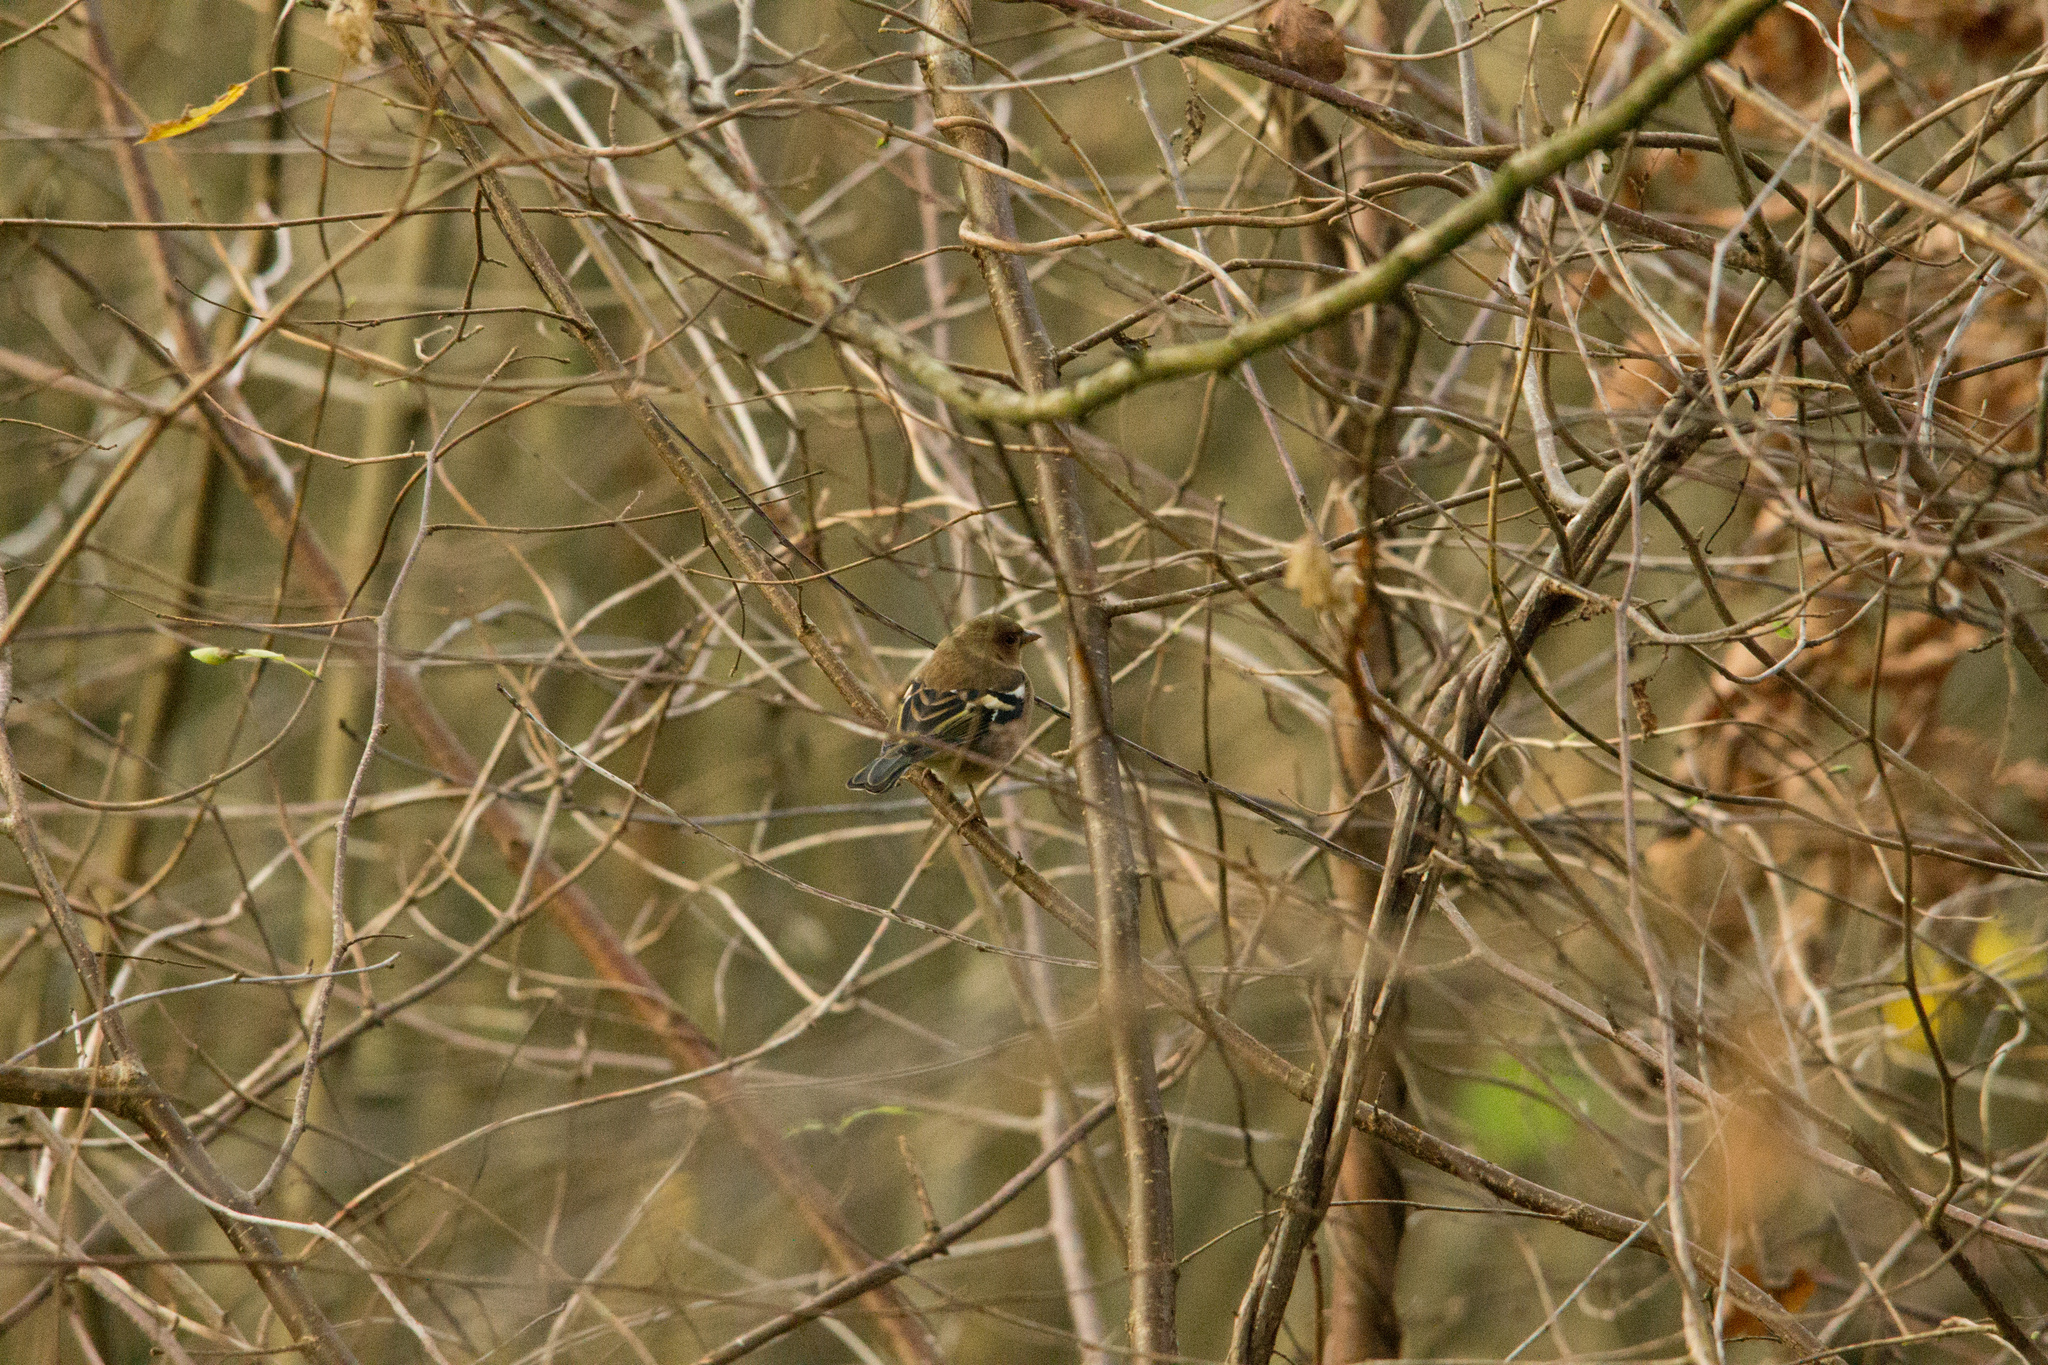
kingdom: Animalia
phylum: Chordata
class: Aves
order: Passeriformes
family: Fringillidae
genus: Fringilla
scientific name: Fringilla coelebs
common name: Common chaffinch
